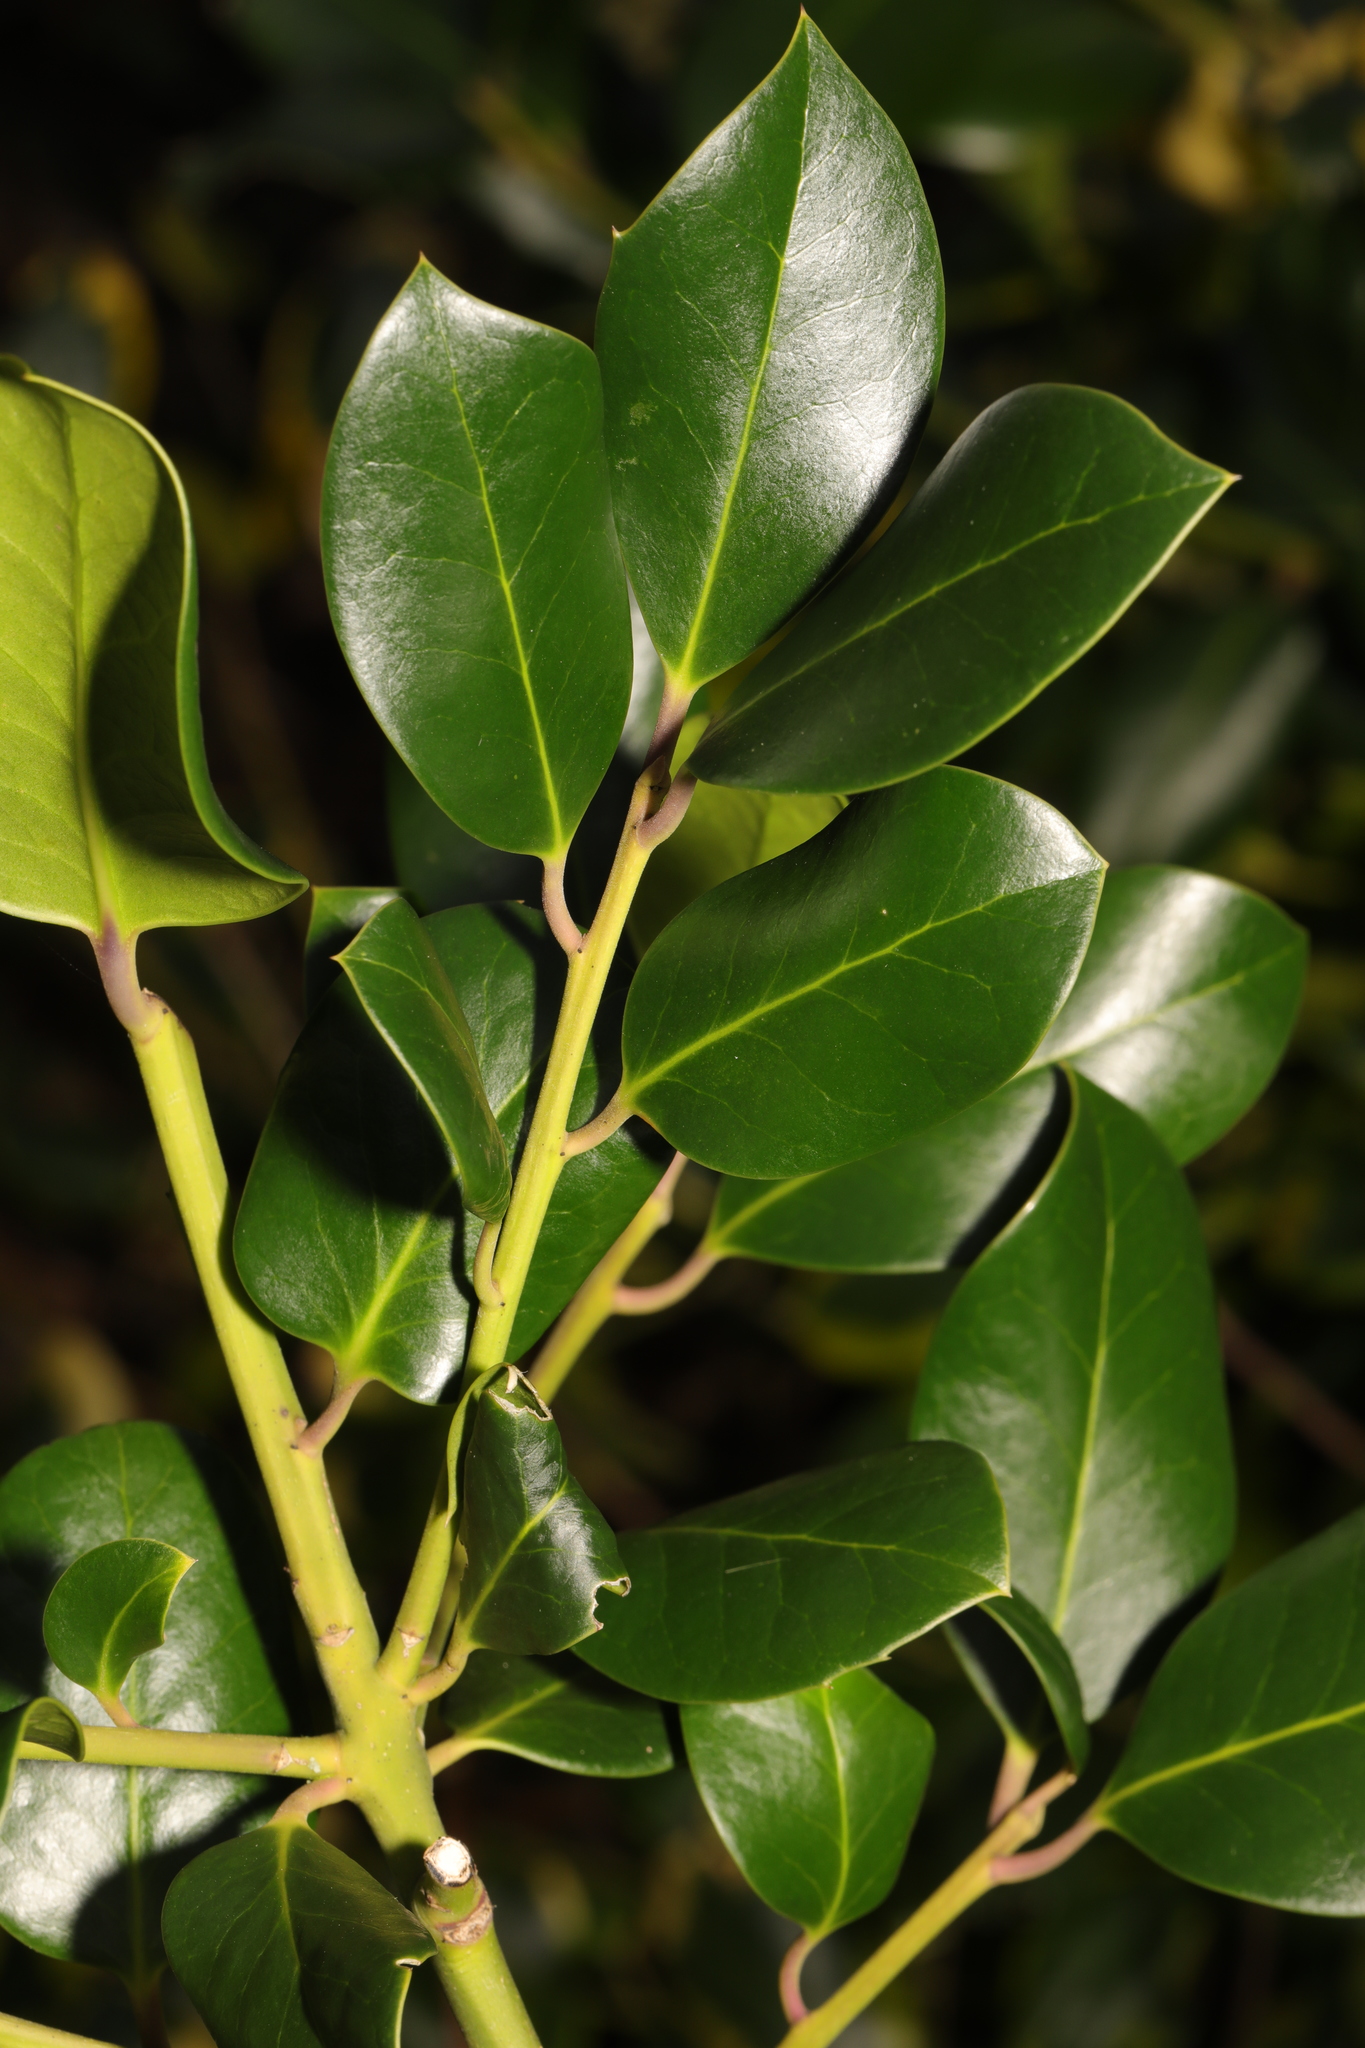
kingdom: Plantae
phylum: Tracheophyta
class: Magnoliopsida
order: Aquifoliales
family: Aquifoliaceae
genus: Ilex
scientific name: Ilex altaclerensis
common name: Highclere holly
